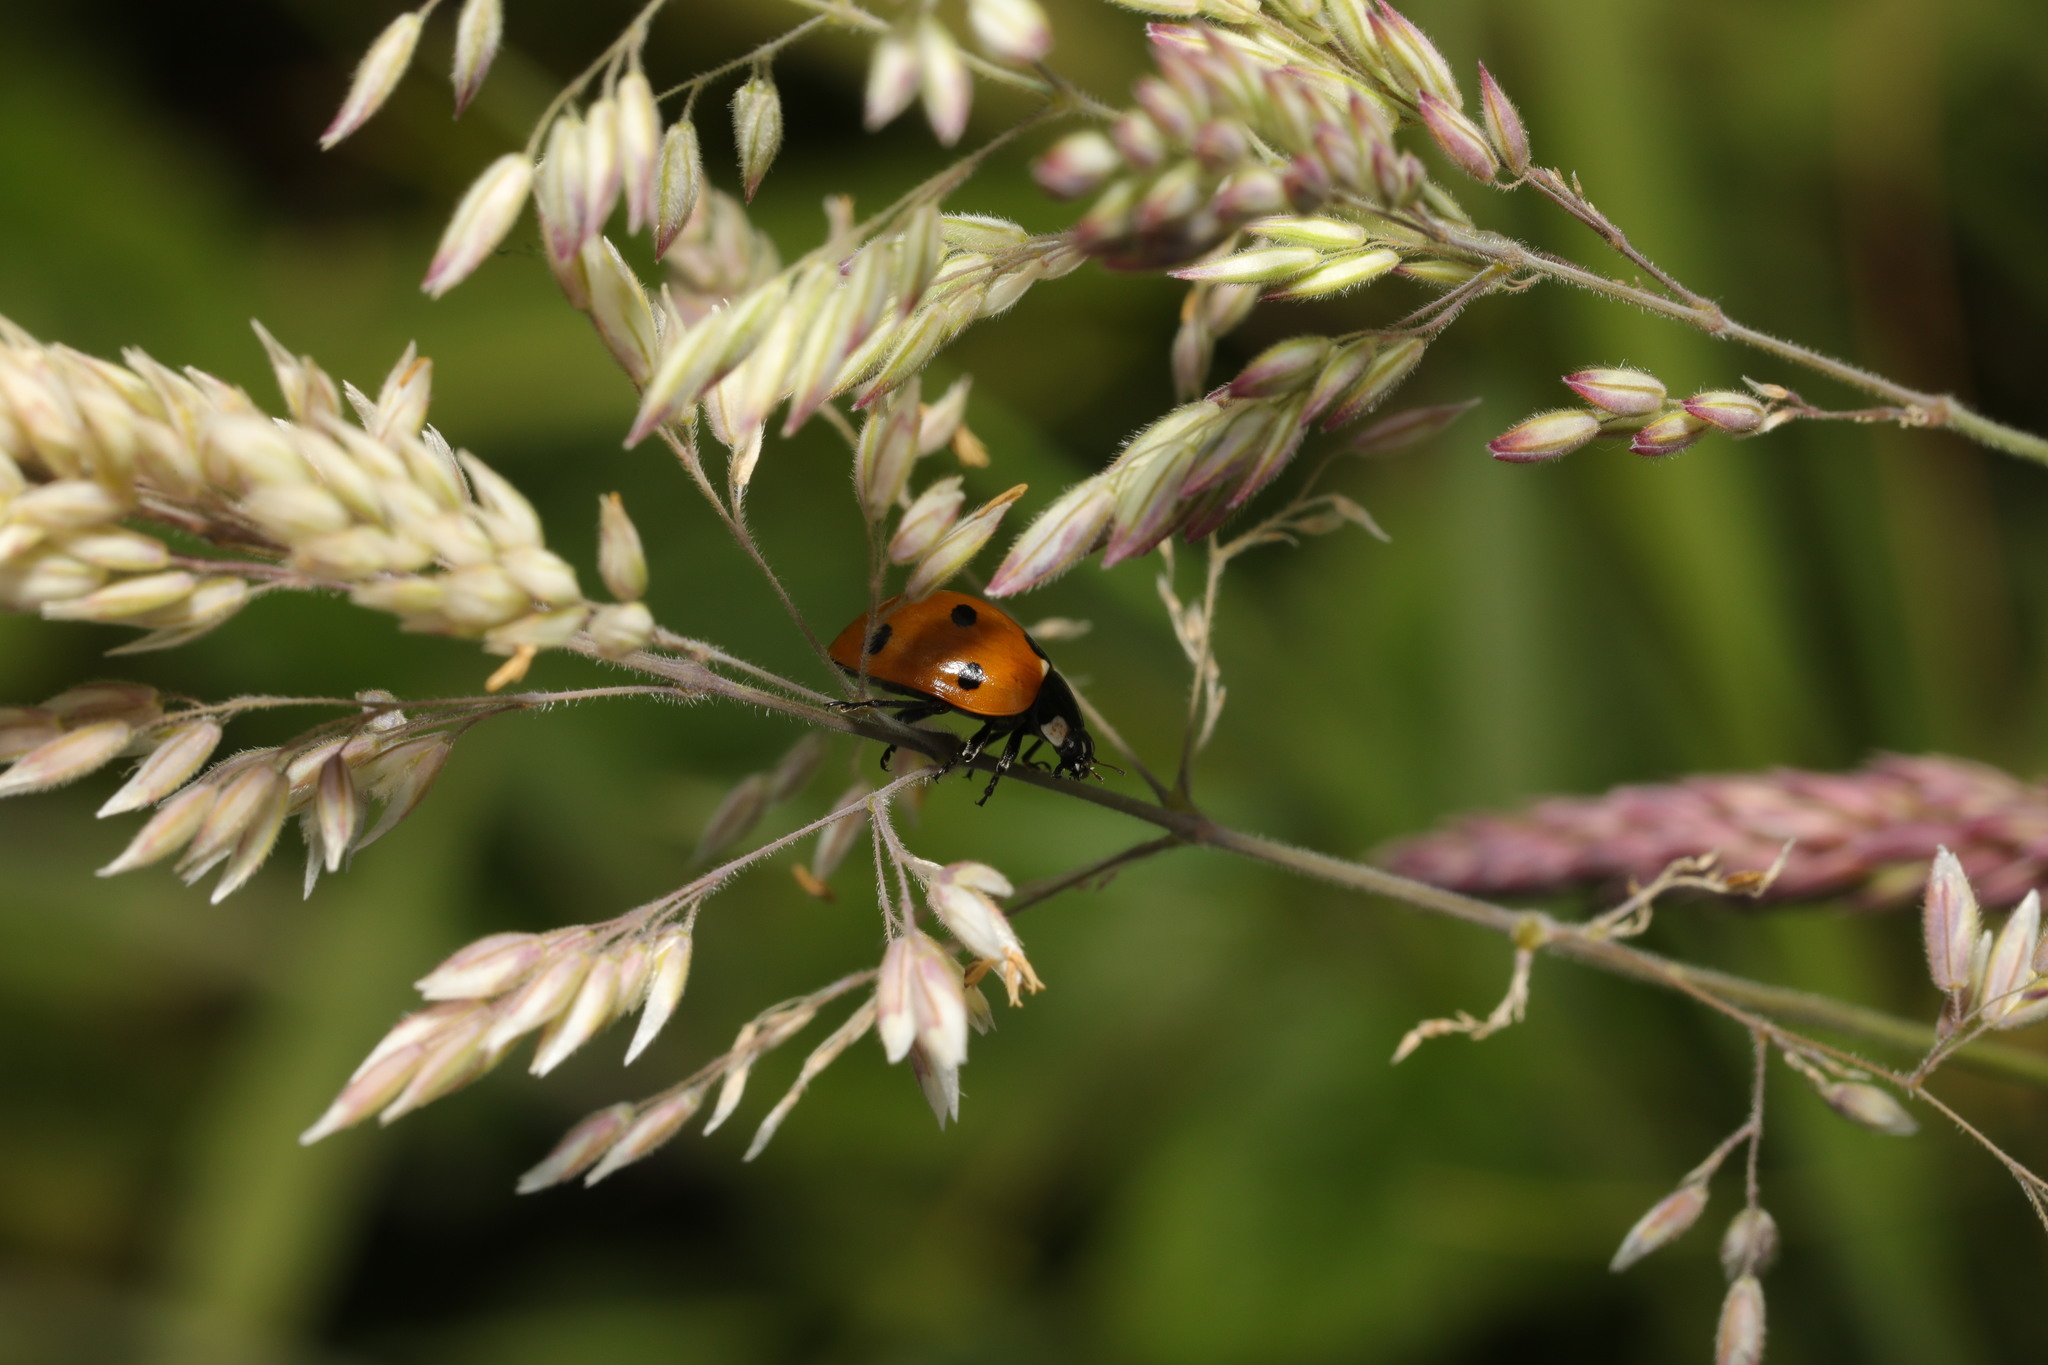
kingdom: Animalia
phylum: Arthropoda
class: Insecta
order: Coleoptera
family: Coccinellidae
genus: Coccinella
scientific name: Coccinella septempunctata
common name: Sevenspotted lady beetle
